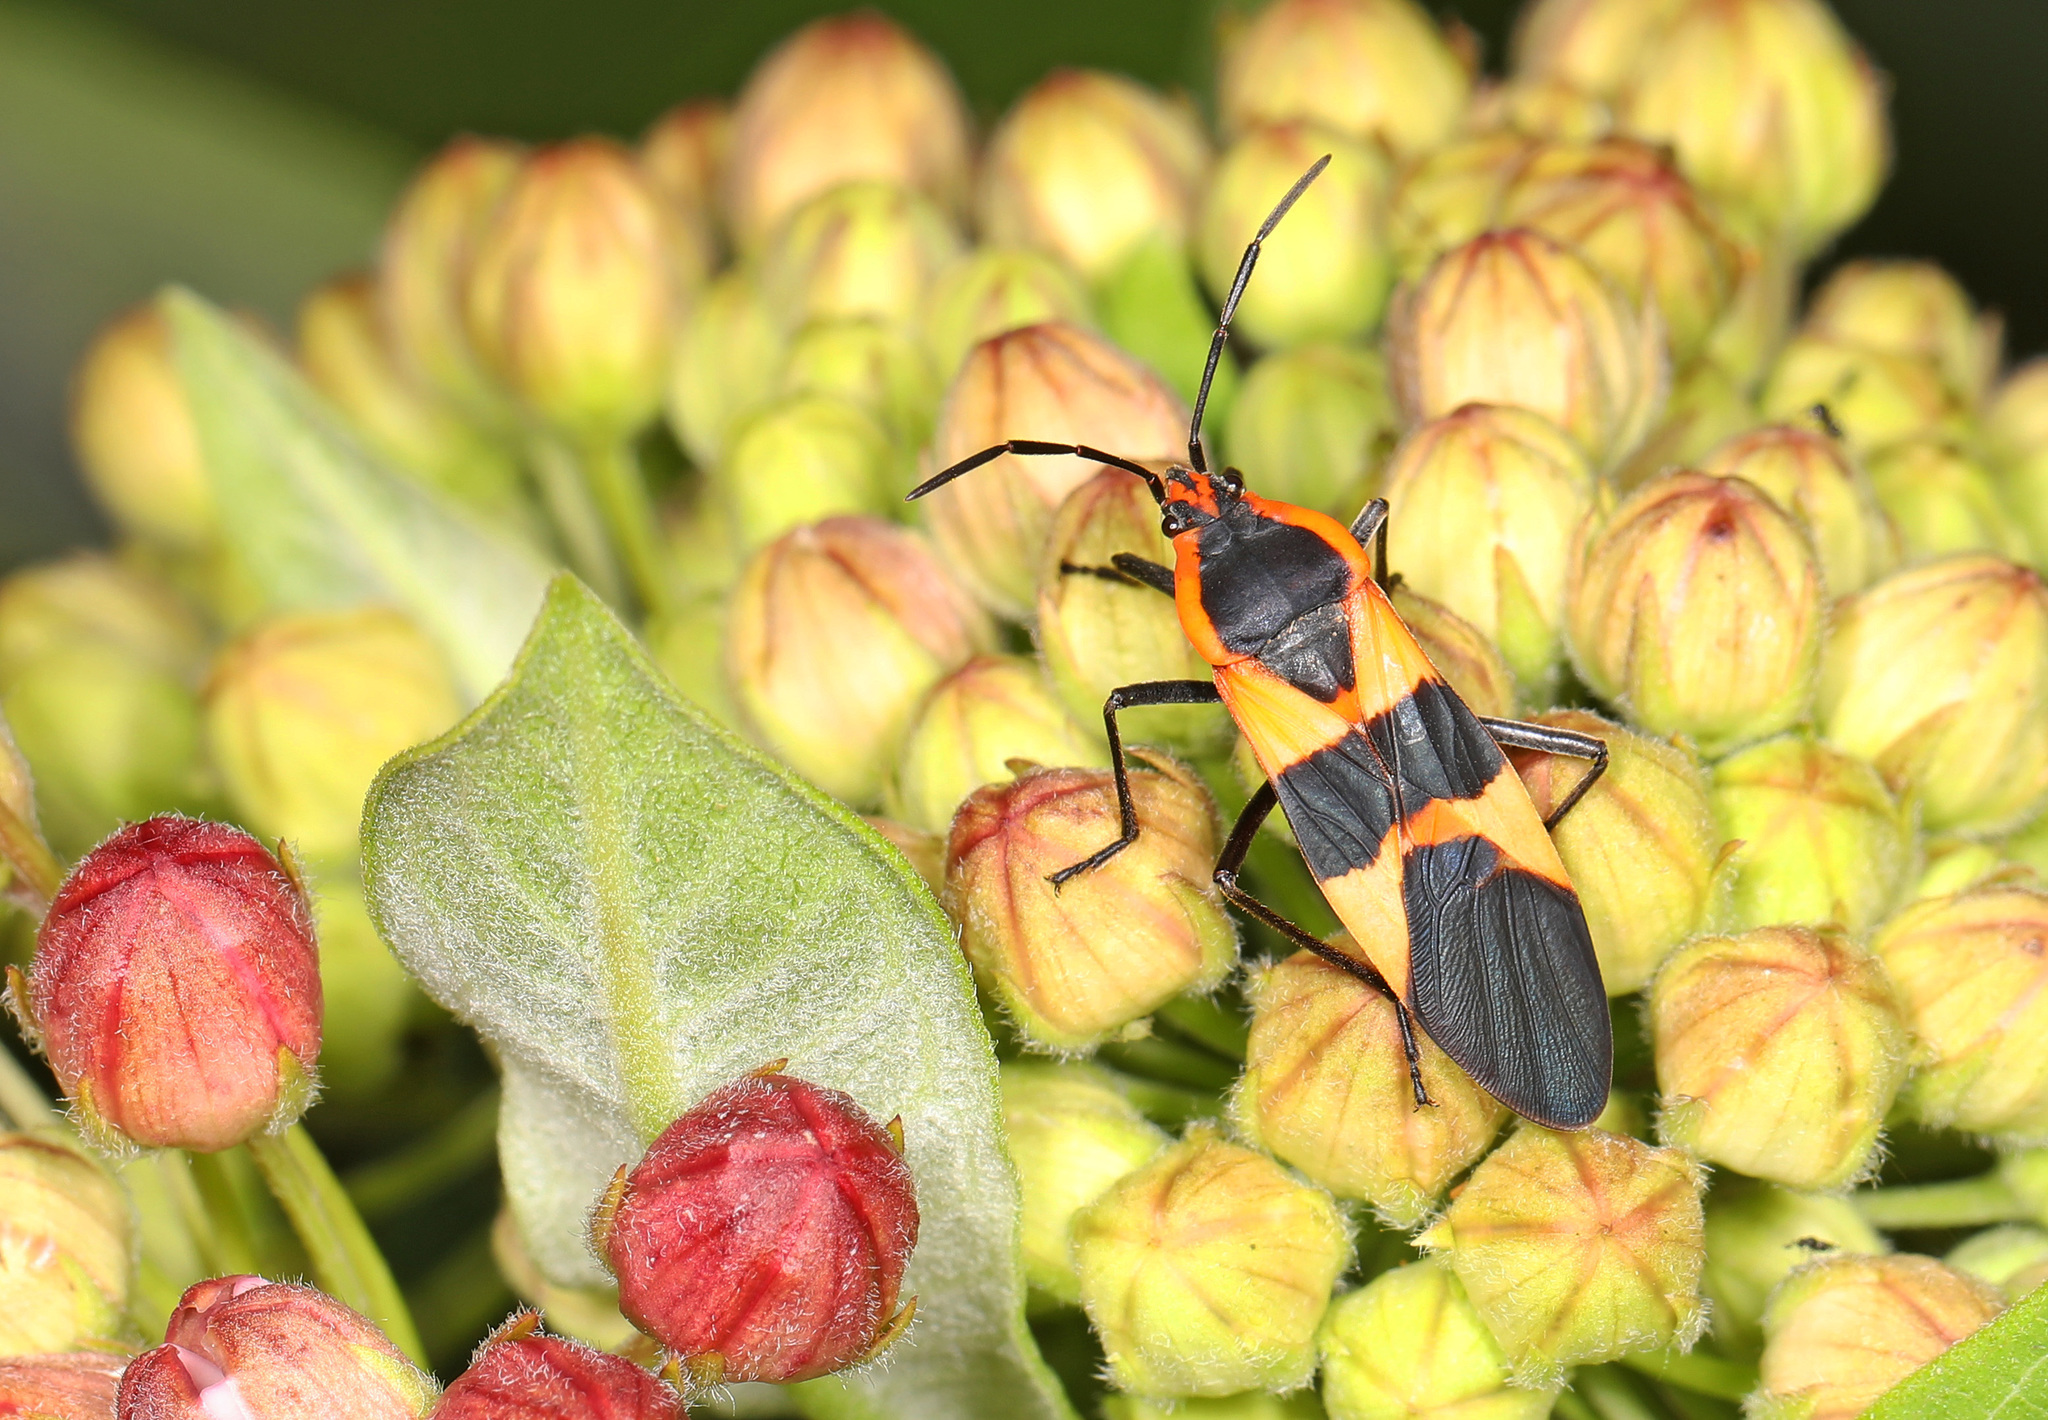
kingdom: Animalia
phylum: Arthropoda
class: Insecta
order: Hemiptera
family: Lygaeidae
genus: Oncopeltus
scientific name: Oncopeltus fasciatus
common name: Large milkweed bug
